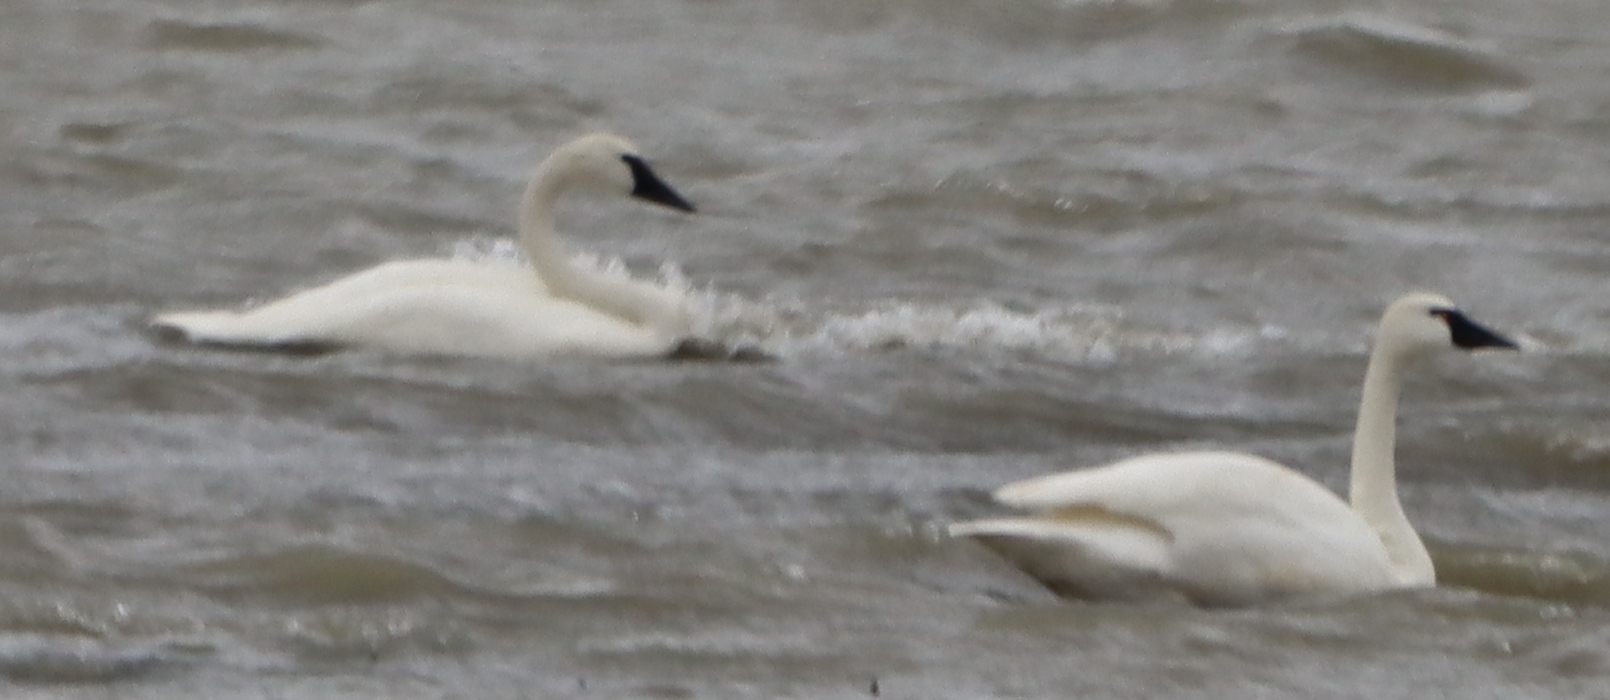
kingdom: Animalia
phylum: Chordata
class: Aves
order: Anseriformes
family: Anatidae
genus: Cygnus
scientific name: Cygnus columbianus
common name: Tundra swan
